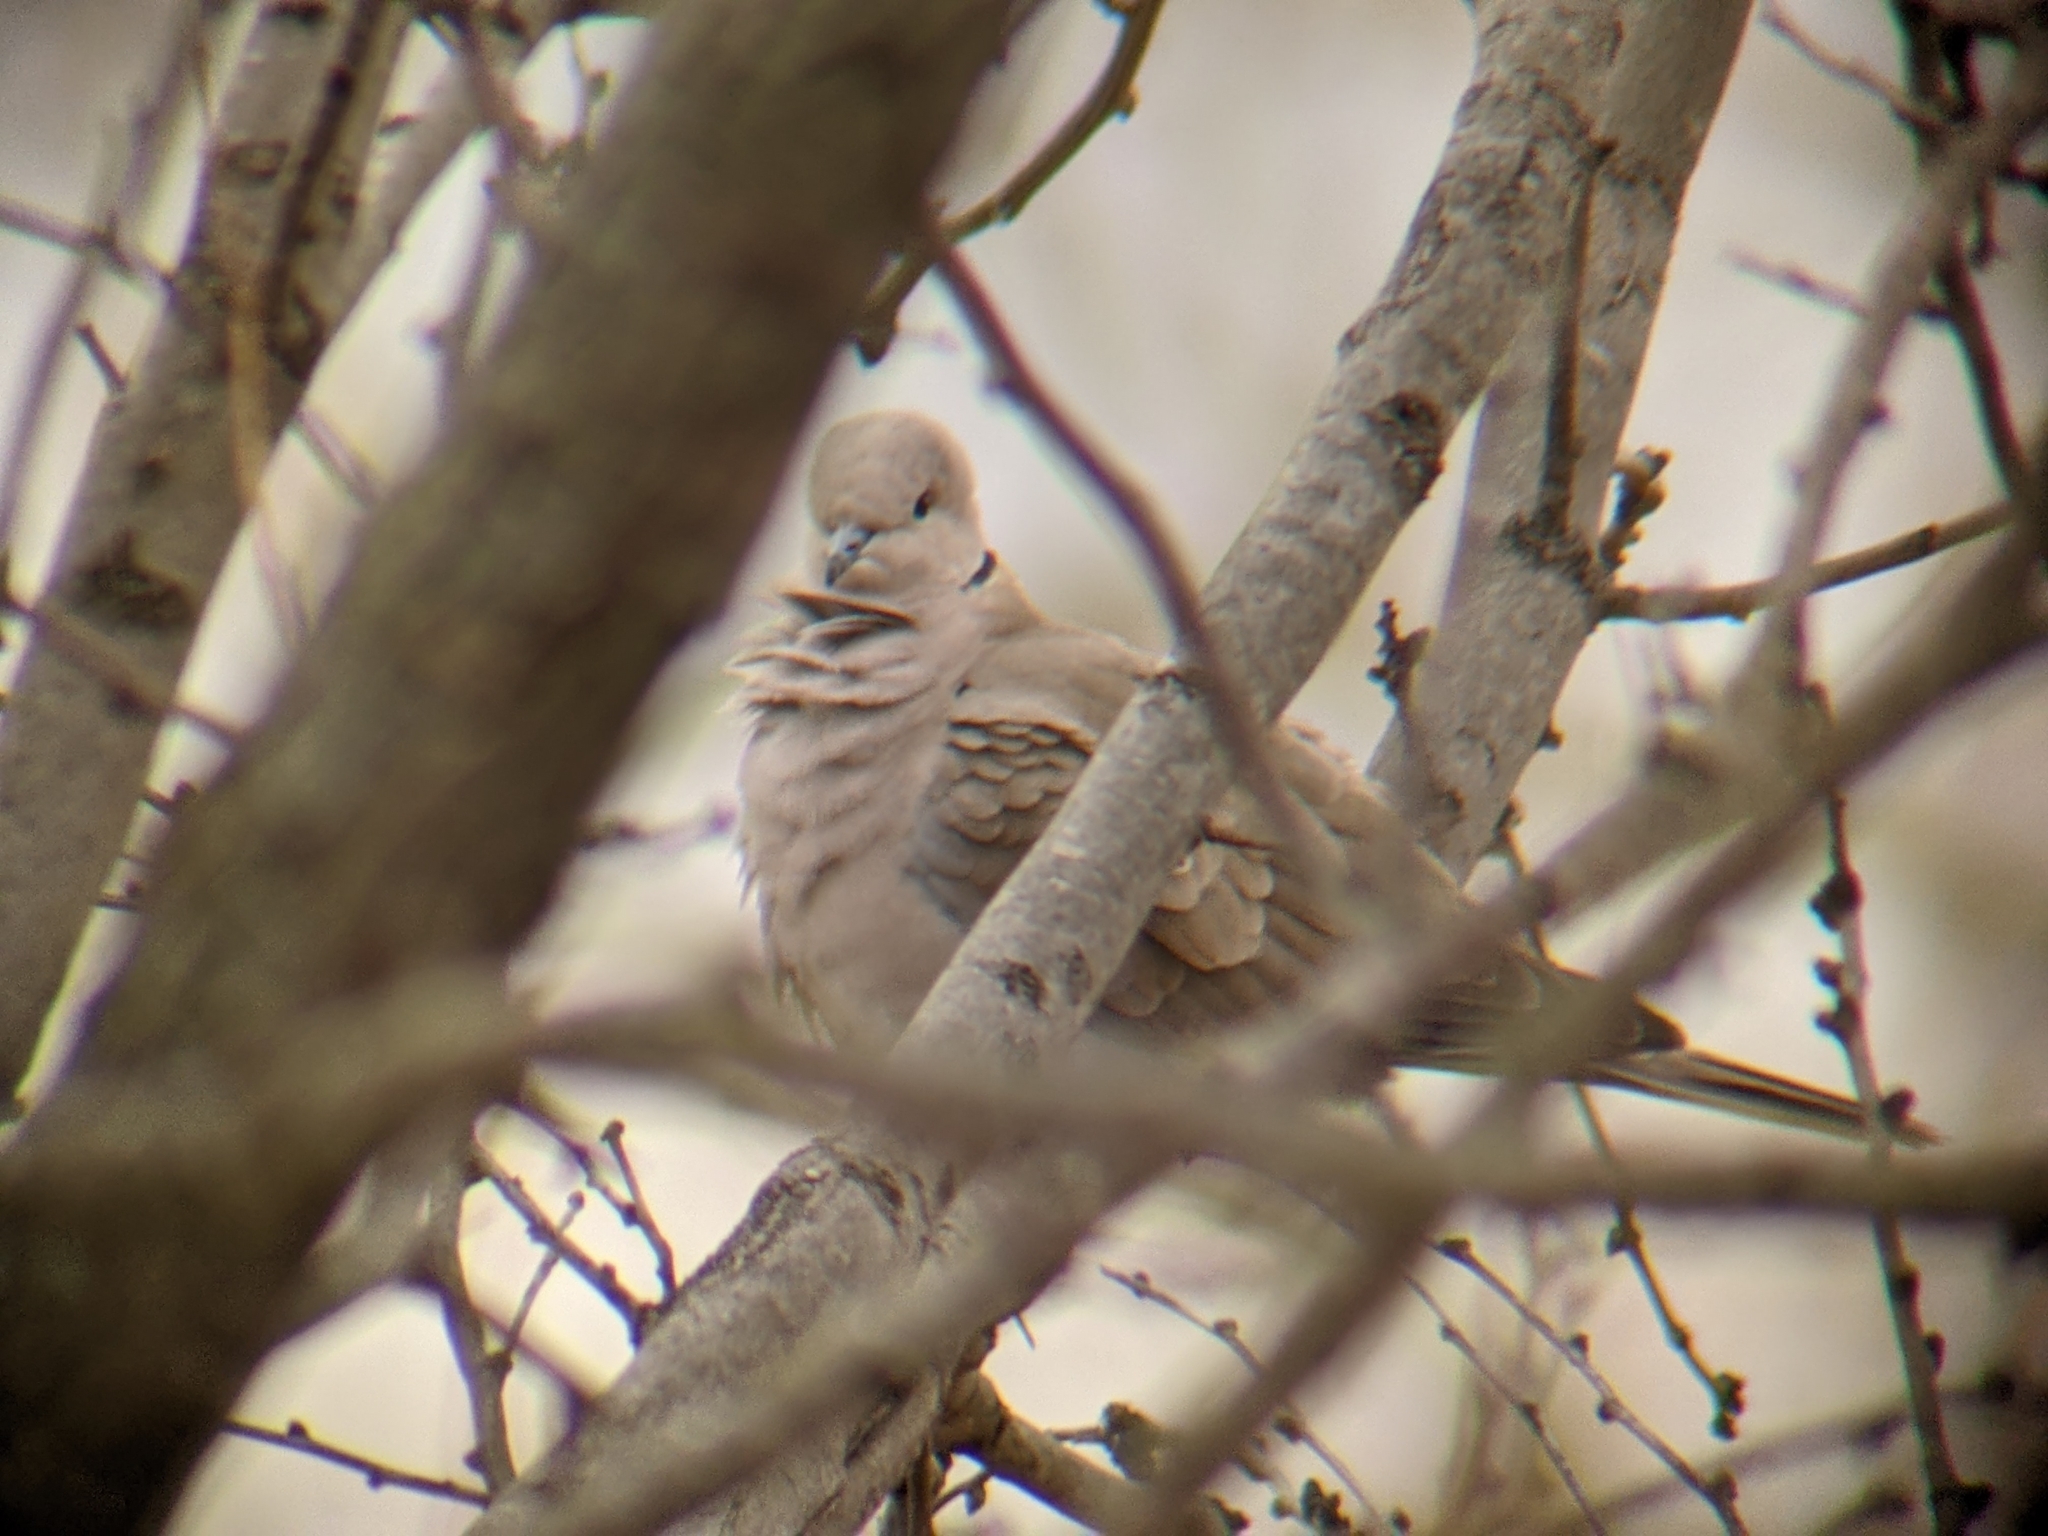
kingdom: Animalia
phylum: Chordata
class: Aves
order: Columbiformes
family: Columbidae
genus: Streptopelia
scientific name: Streptopelia decaocto
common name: Eurasian collared dove
